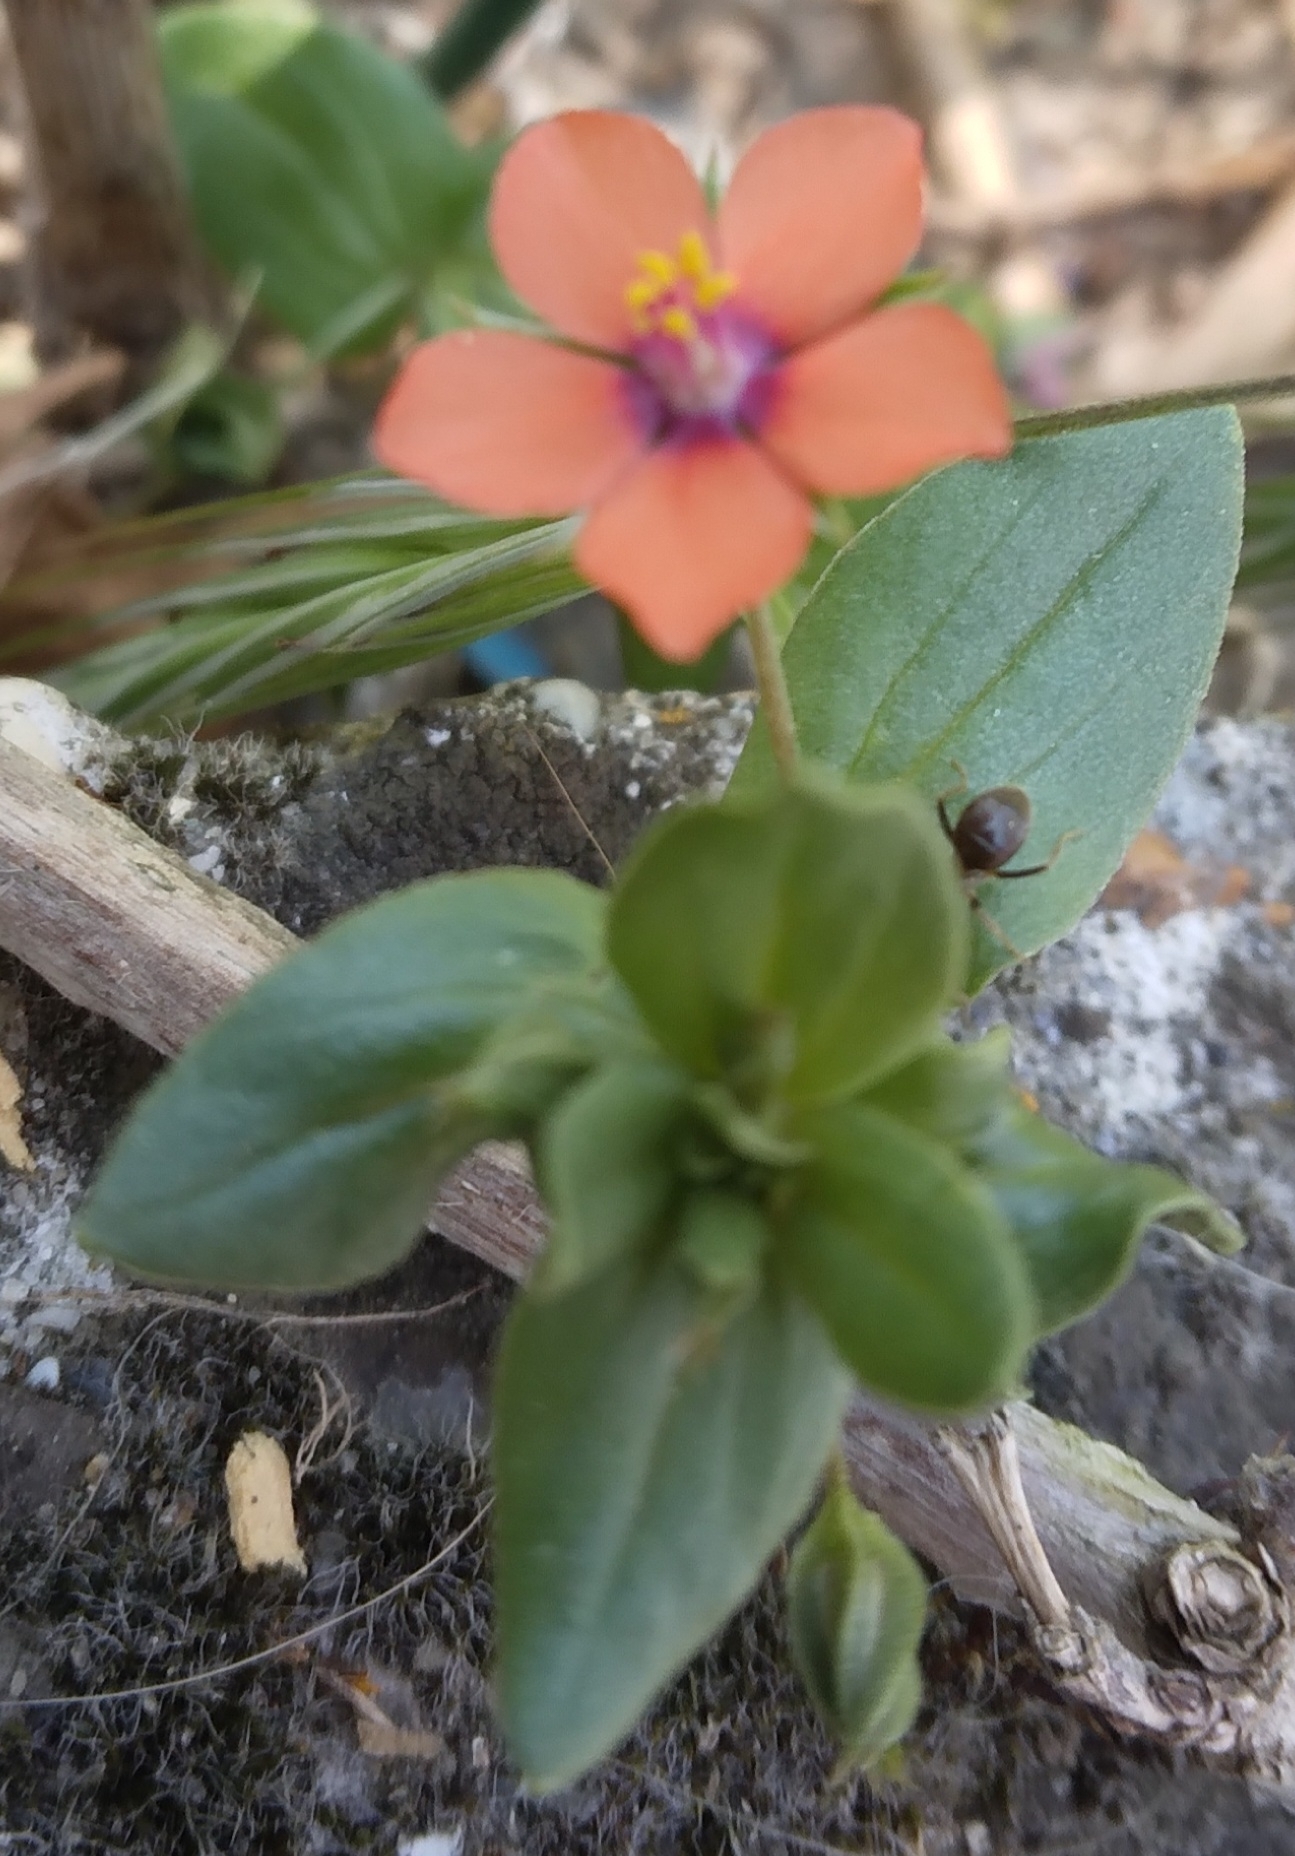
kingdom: Plantae
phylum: Tracheophyta
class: Magnoliopsida
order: Ericales
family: Primulaceae
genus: Lysimachia
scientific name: Lysimachia arvensis
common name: Scarlet pimpernel
